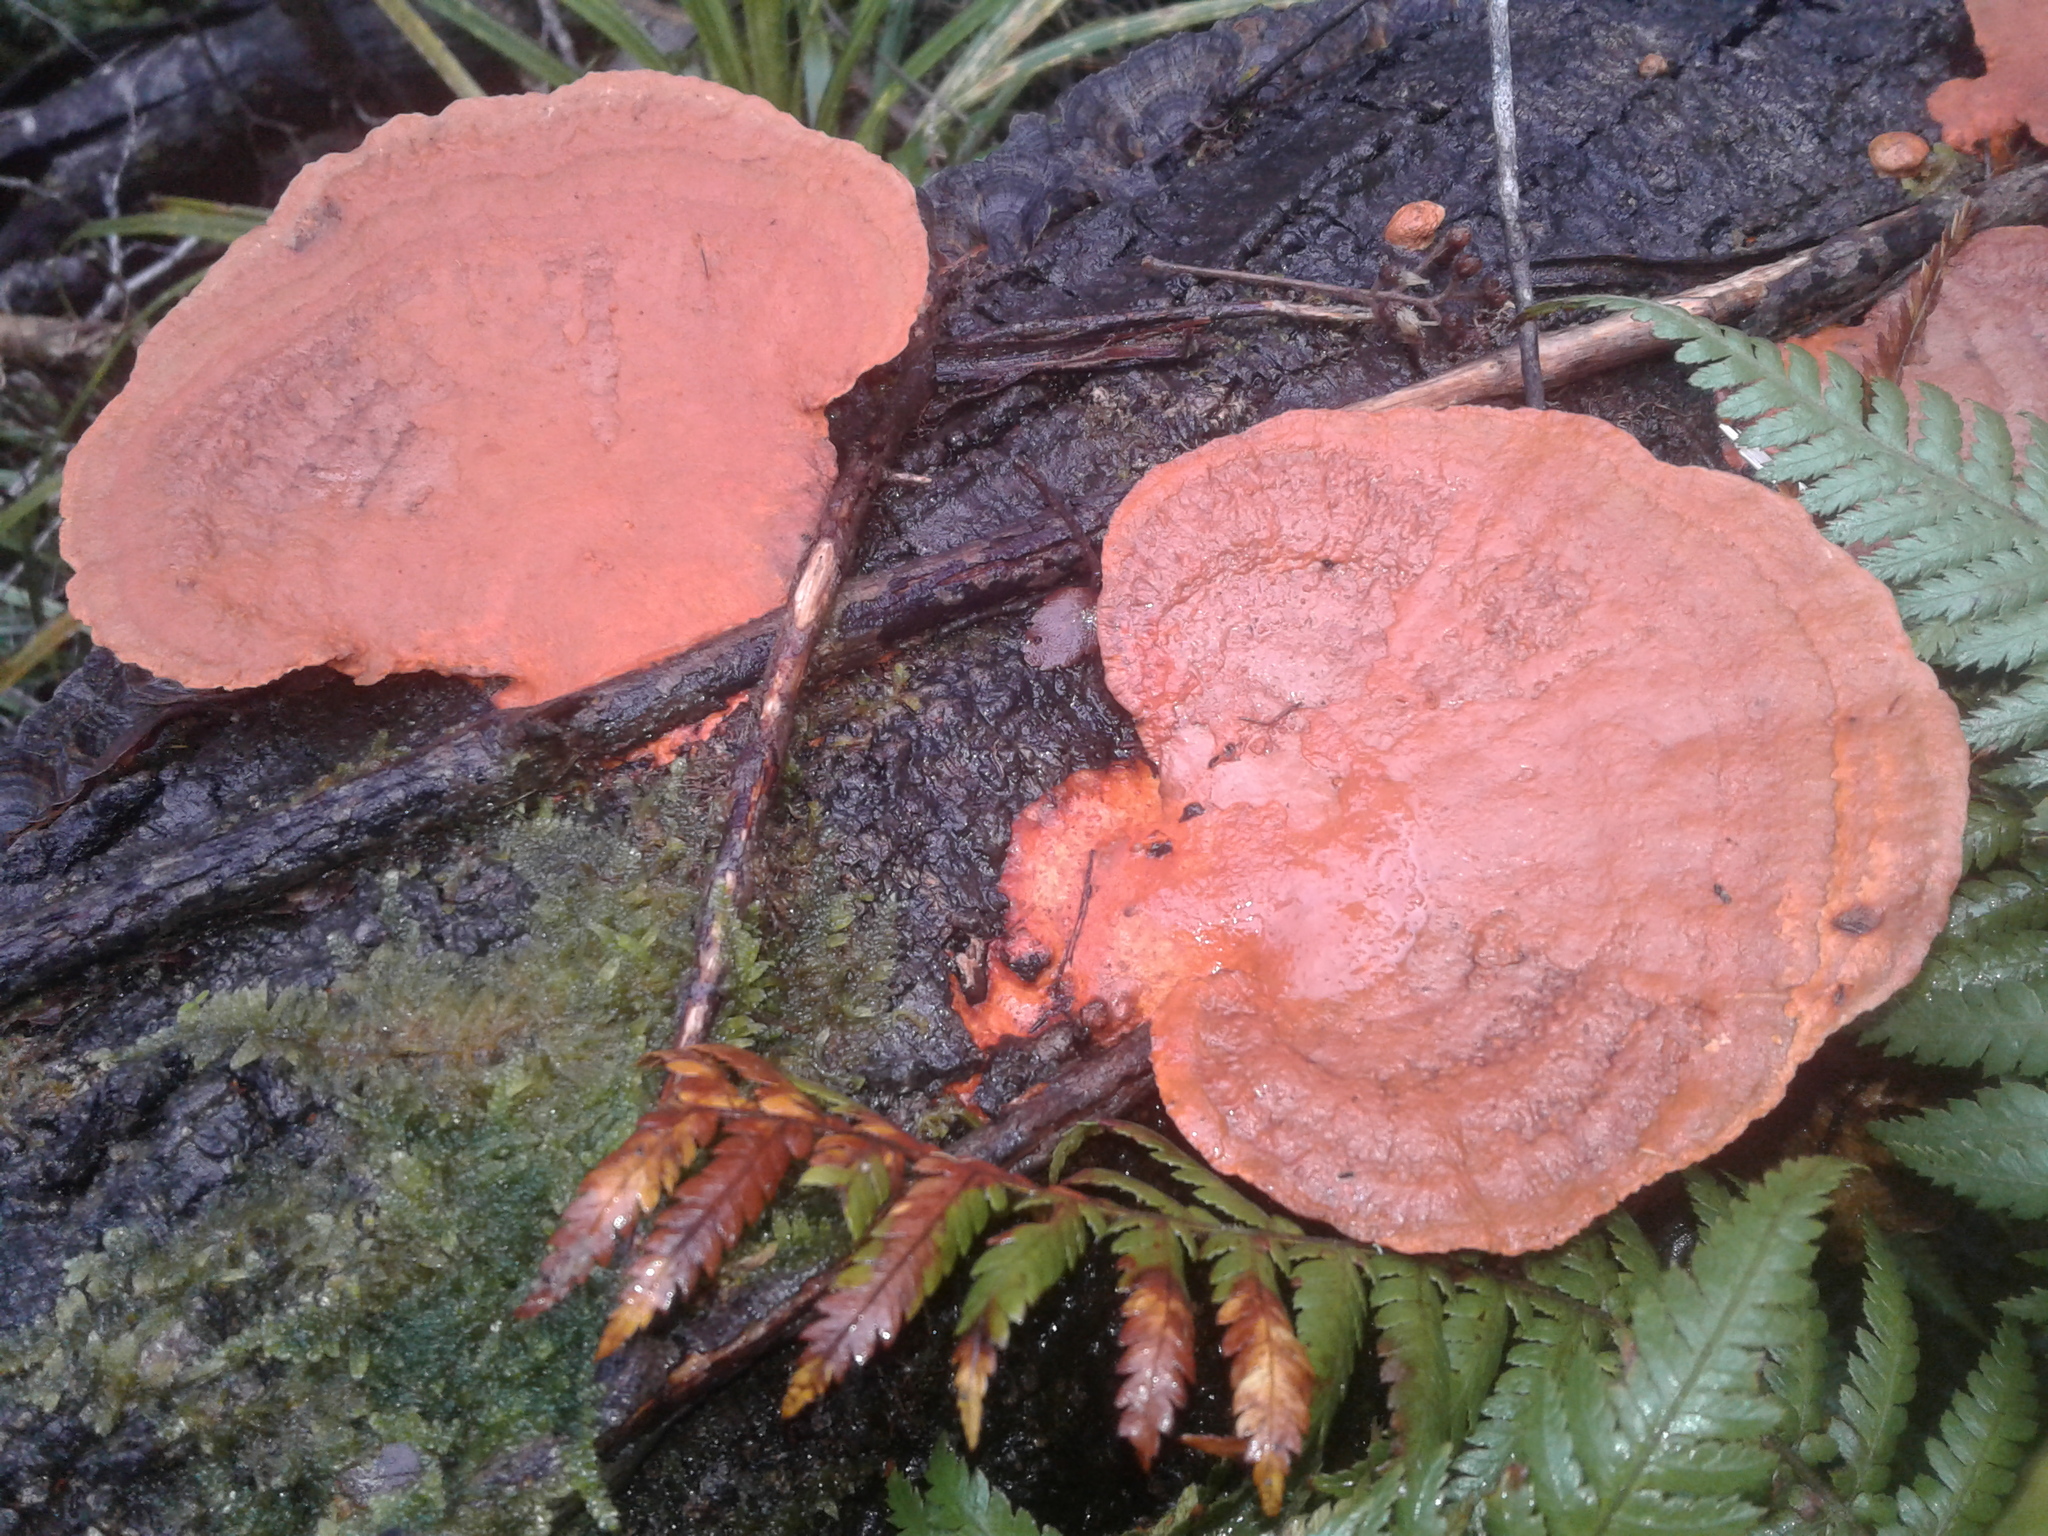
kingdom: Fungi
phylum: Basidiomycota
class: Agaricomycetes
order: Polyporales
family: Polyporaceae
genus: Trametes
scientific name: Trametes coccinea
